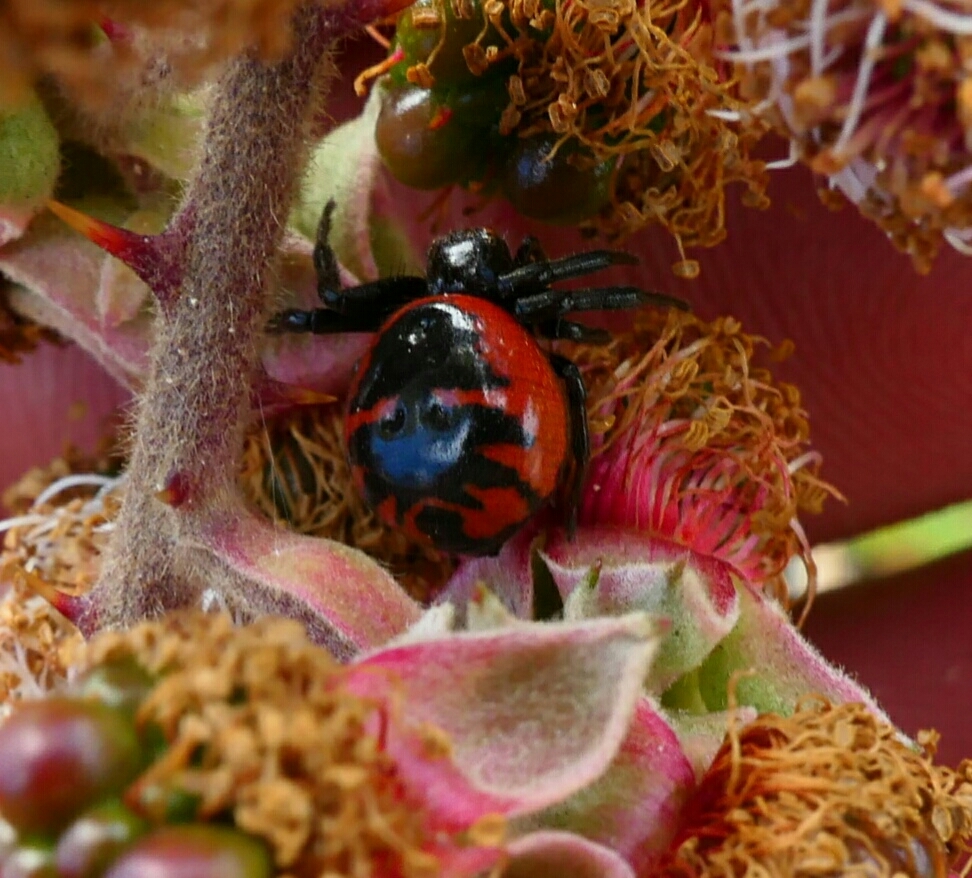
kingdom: Animalia
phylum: Arthropoda
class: Arachnida
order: Araneae
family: Thomisidae
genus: Synema
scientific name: Synema globosum
